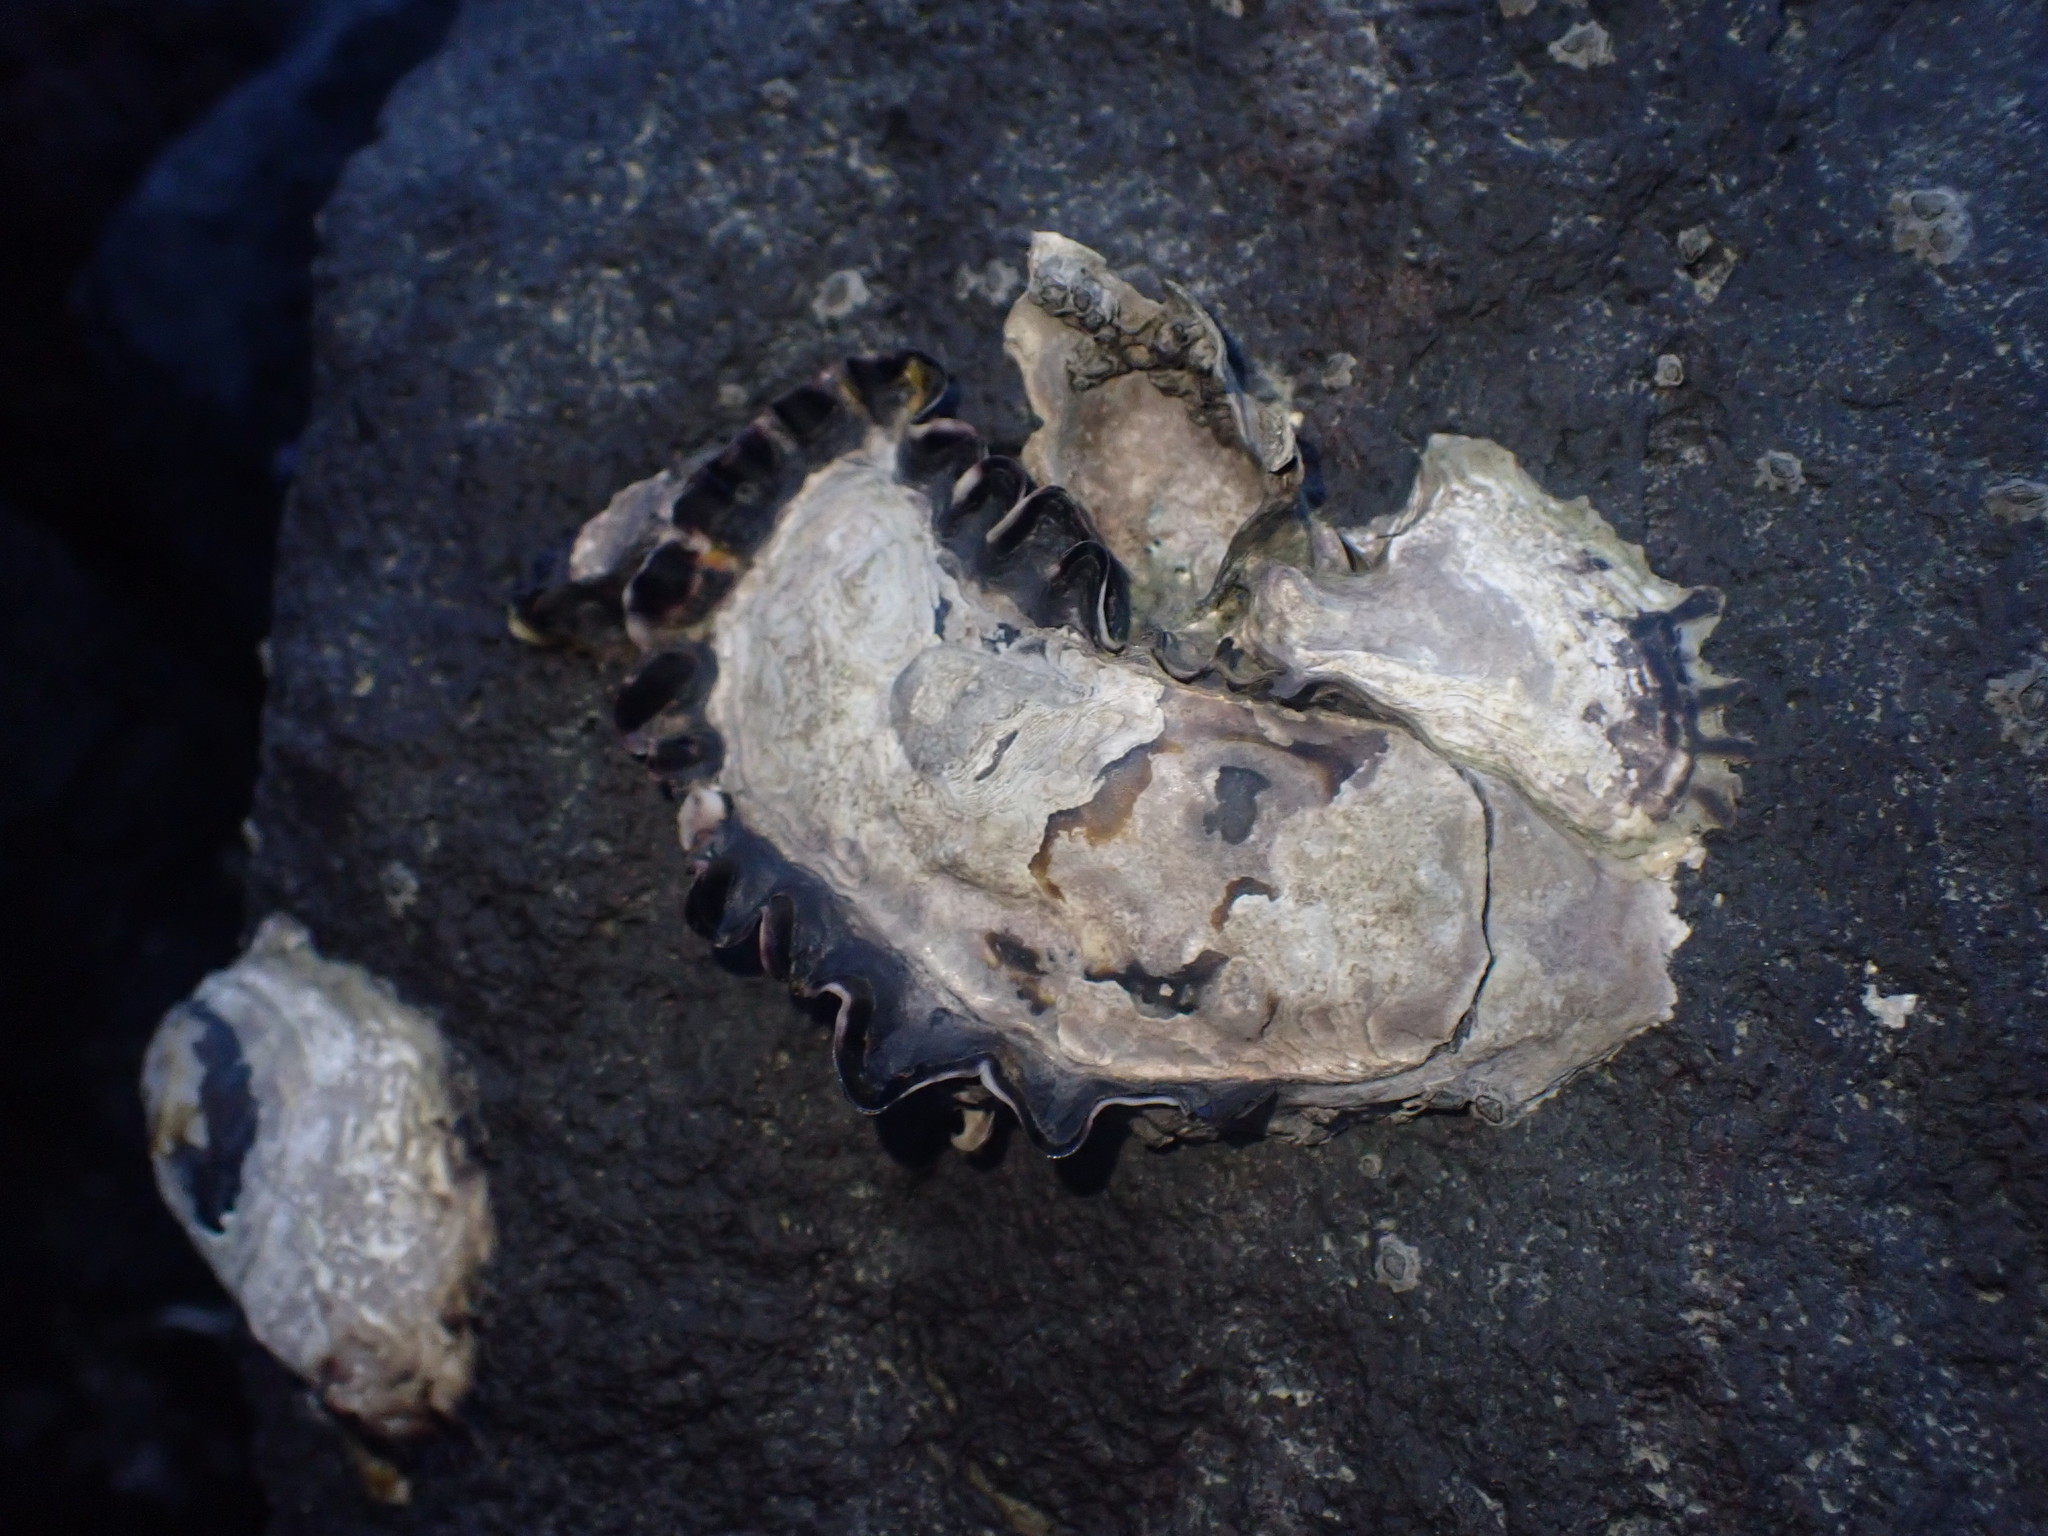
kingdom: Animalia
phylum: Mollusca
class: Bivalvia
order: Ostreida
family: Ostreidae
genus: Saccostrea
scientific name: Saccostrea glomerata
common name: Sydney cupped oyster
